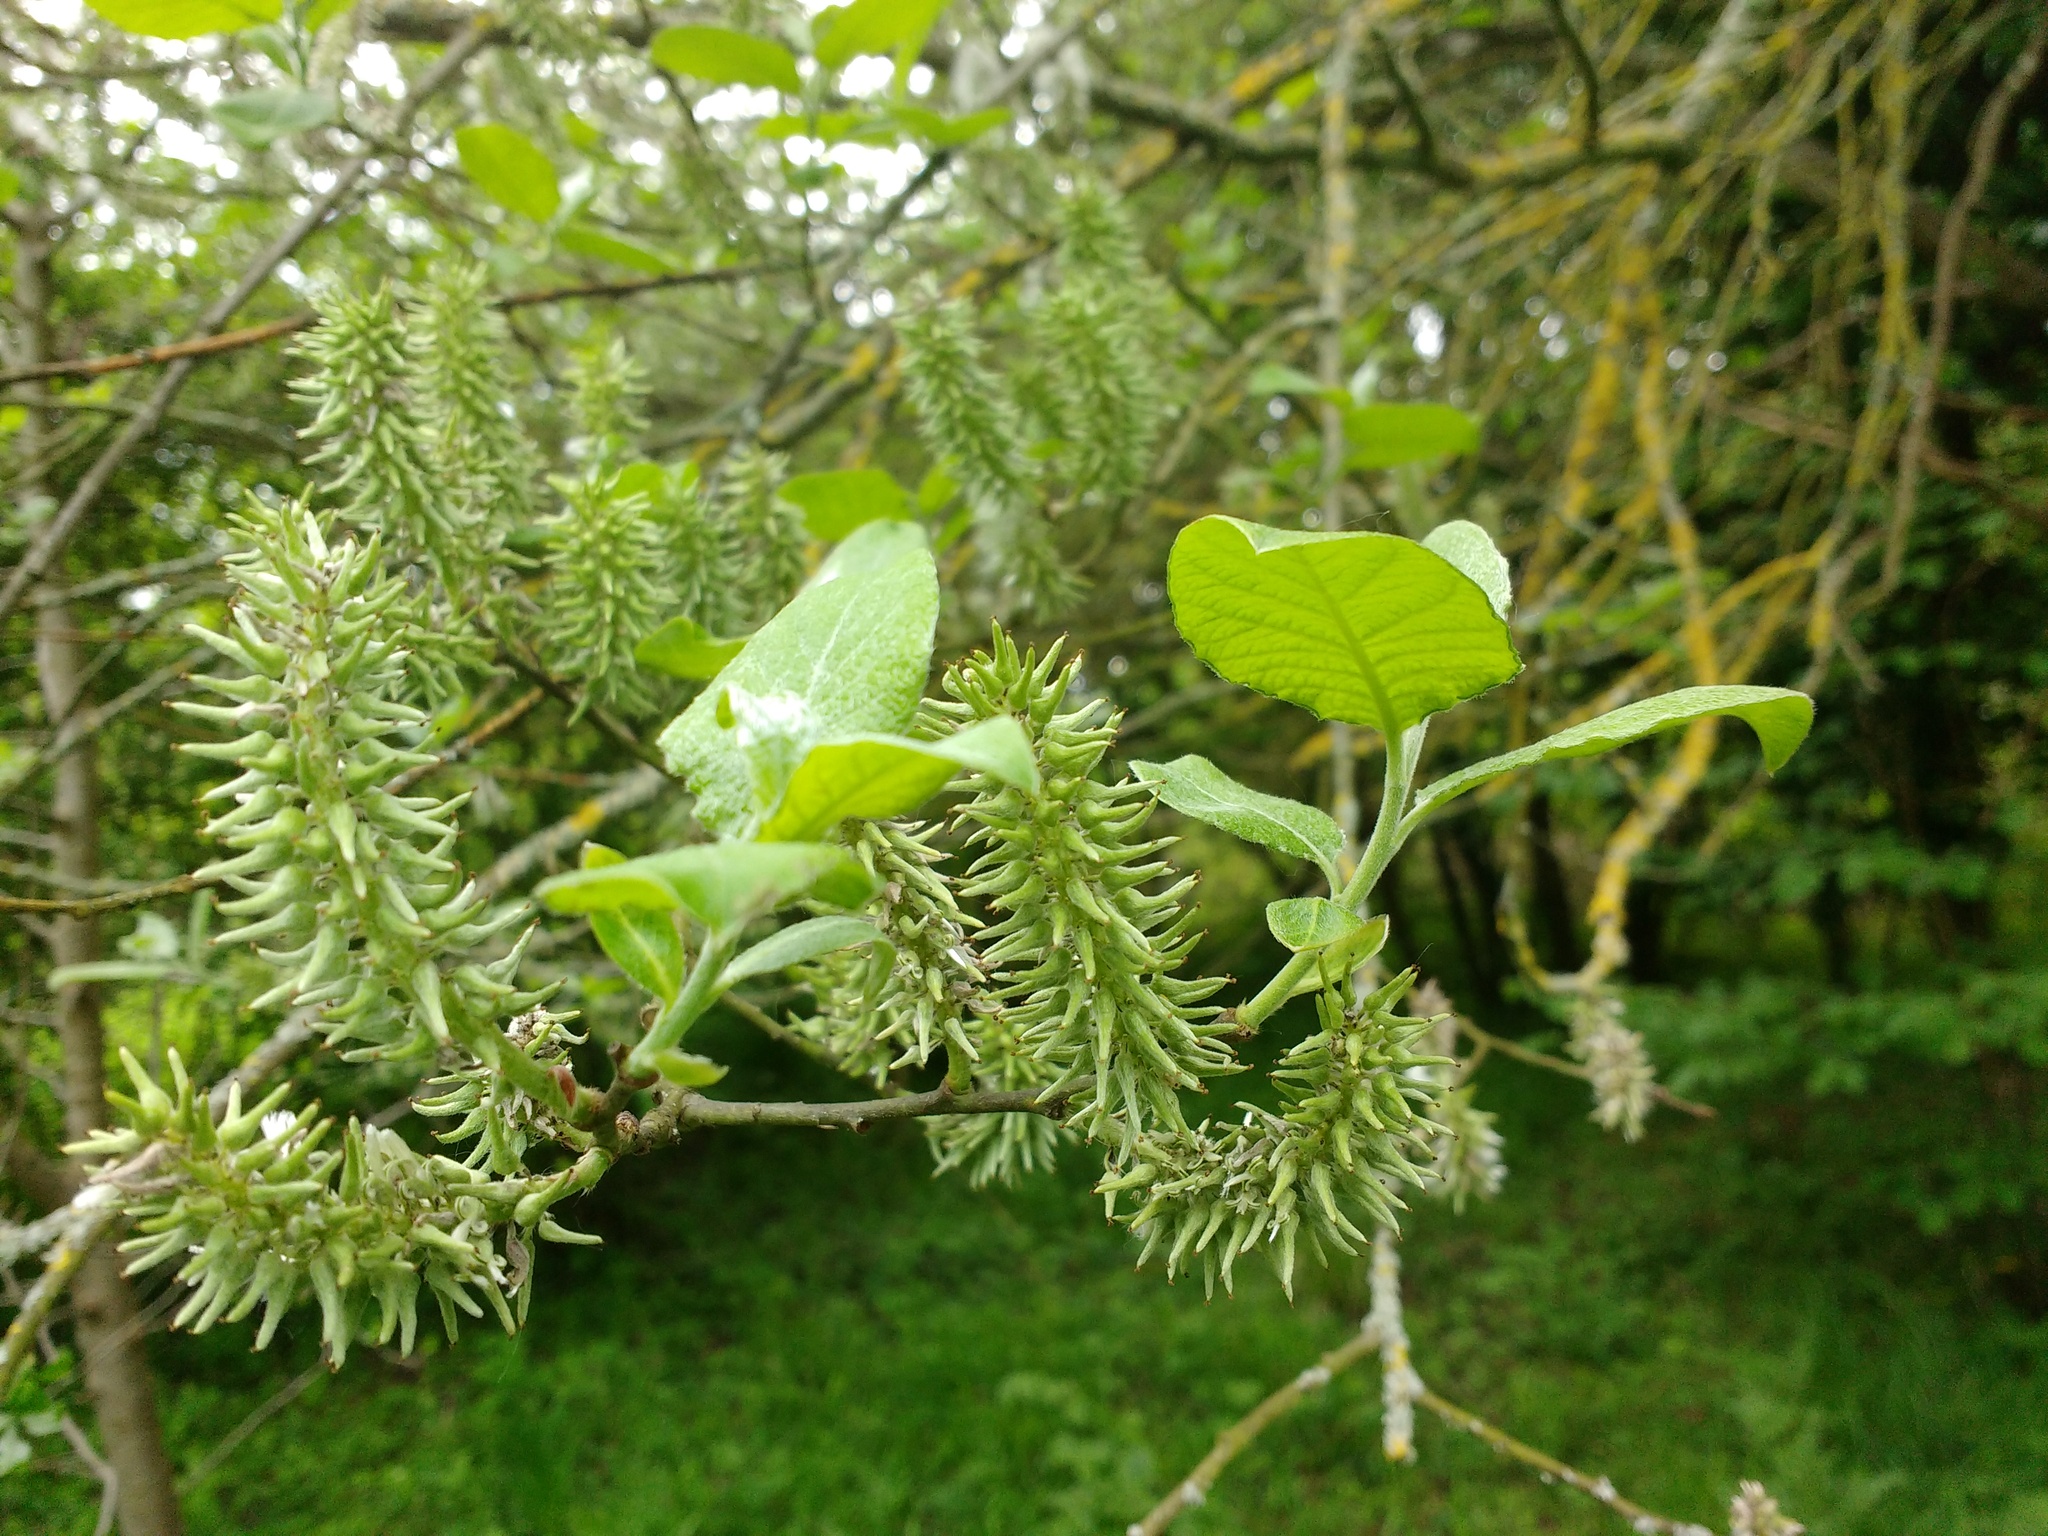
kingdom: Plantae
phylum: Tracheophyta
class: Magnoliopsida
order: Malpighiales
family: Salicaceae
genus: Salix
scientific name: Salix caprea
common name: Goat willow
